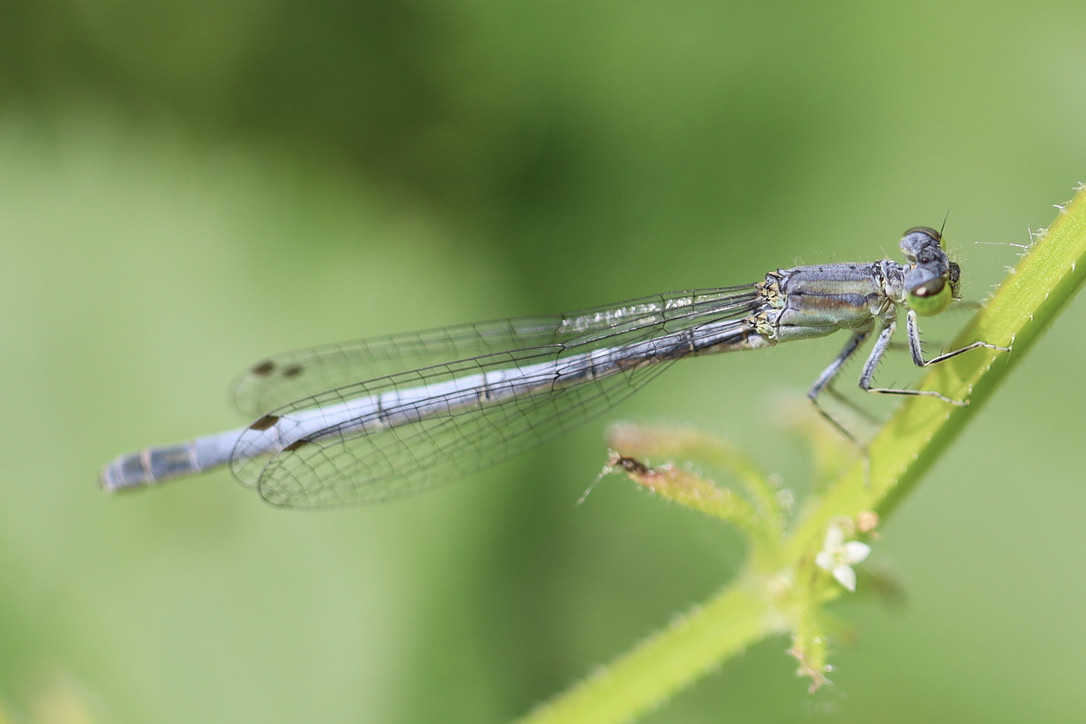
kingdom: Animalia
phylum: Arthropoda
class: Insecta
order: Odonata
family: Coenagrionidae
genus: Ischnura
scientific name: Ischnura perparva
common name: Western forktail
